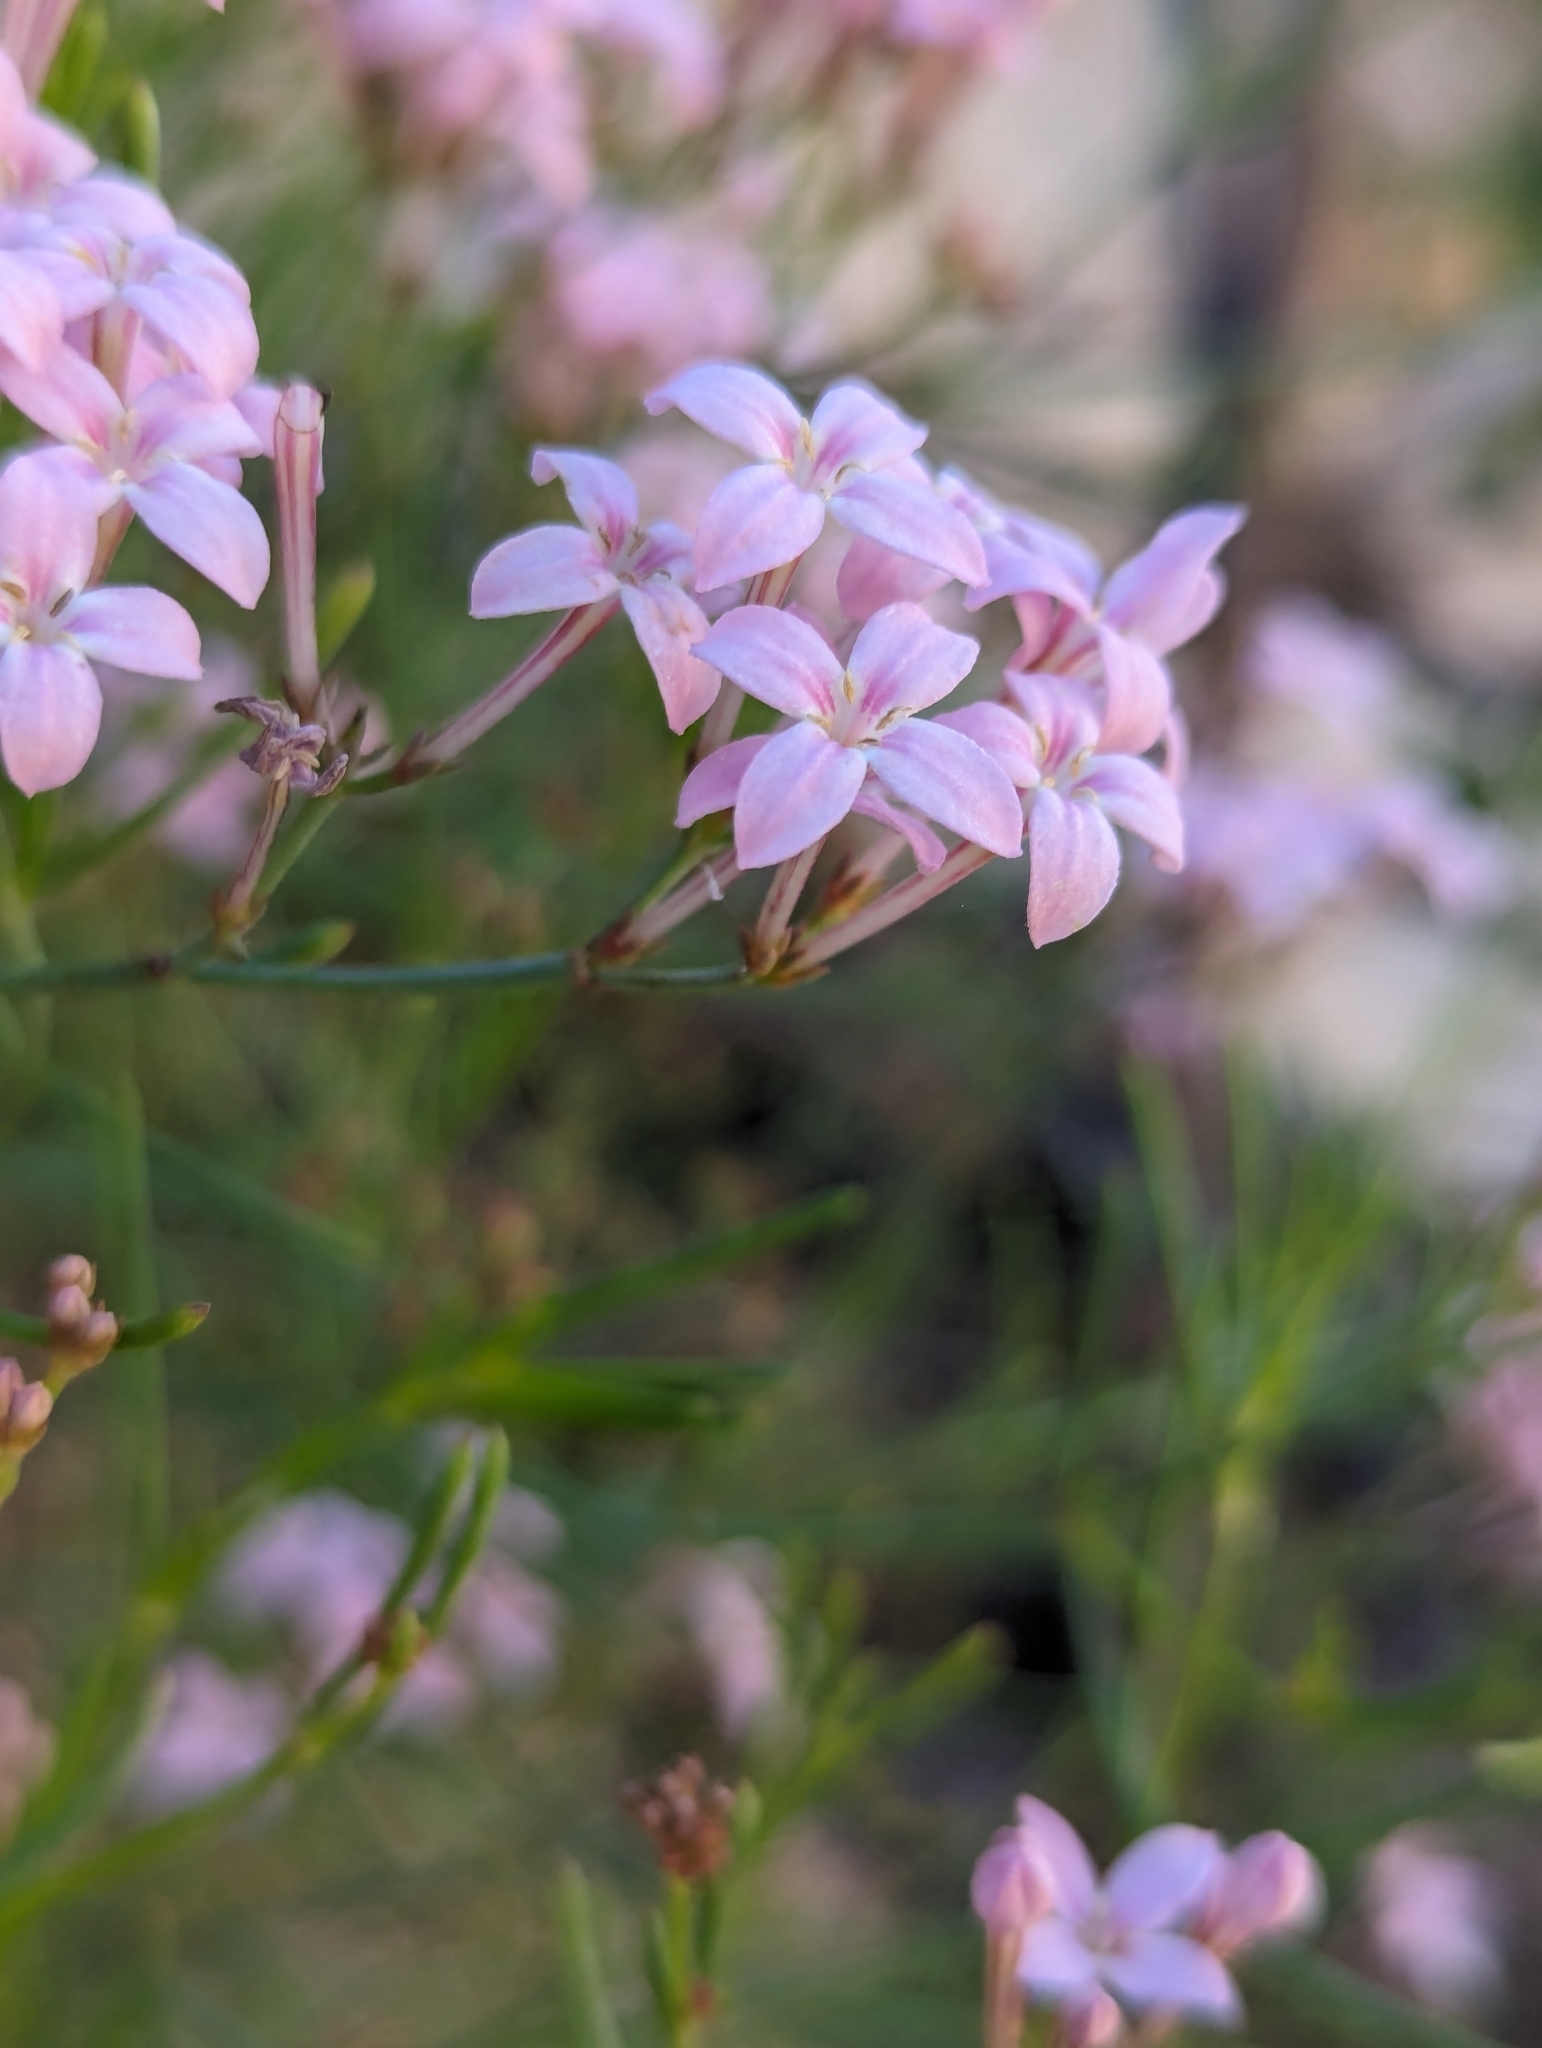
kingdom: Plantae
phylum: Tracheophyta
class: Magnoliopsida
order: Gentianales
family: Rubiaceae
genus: Stenotis
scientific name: Stenotis brevipes
